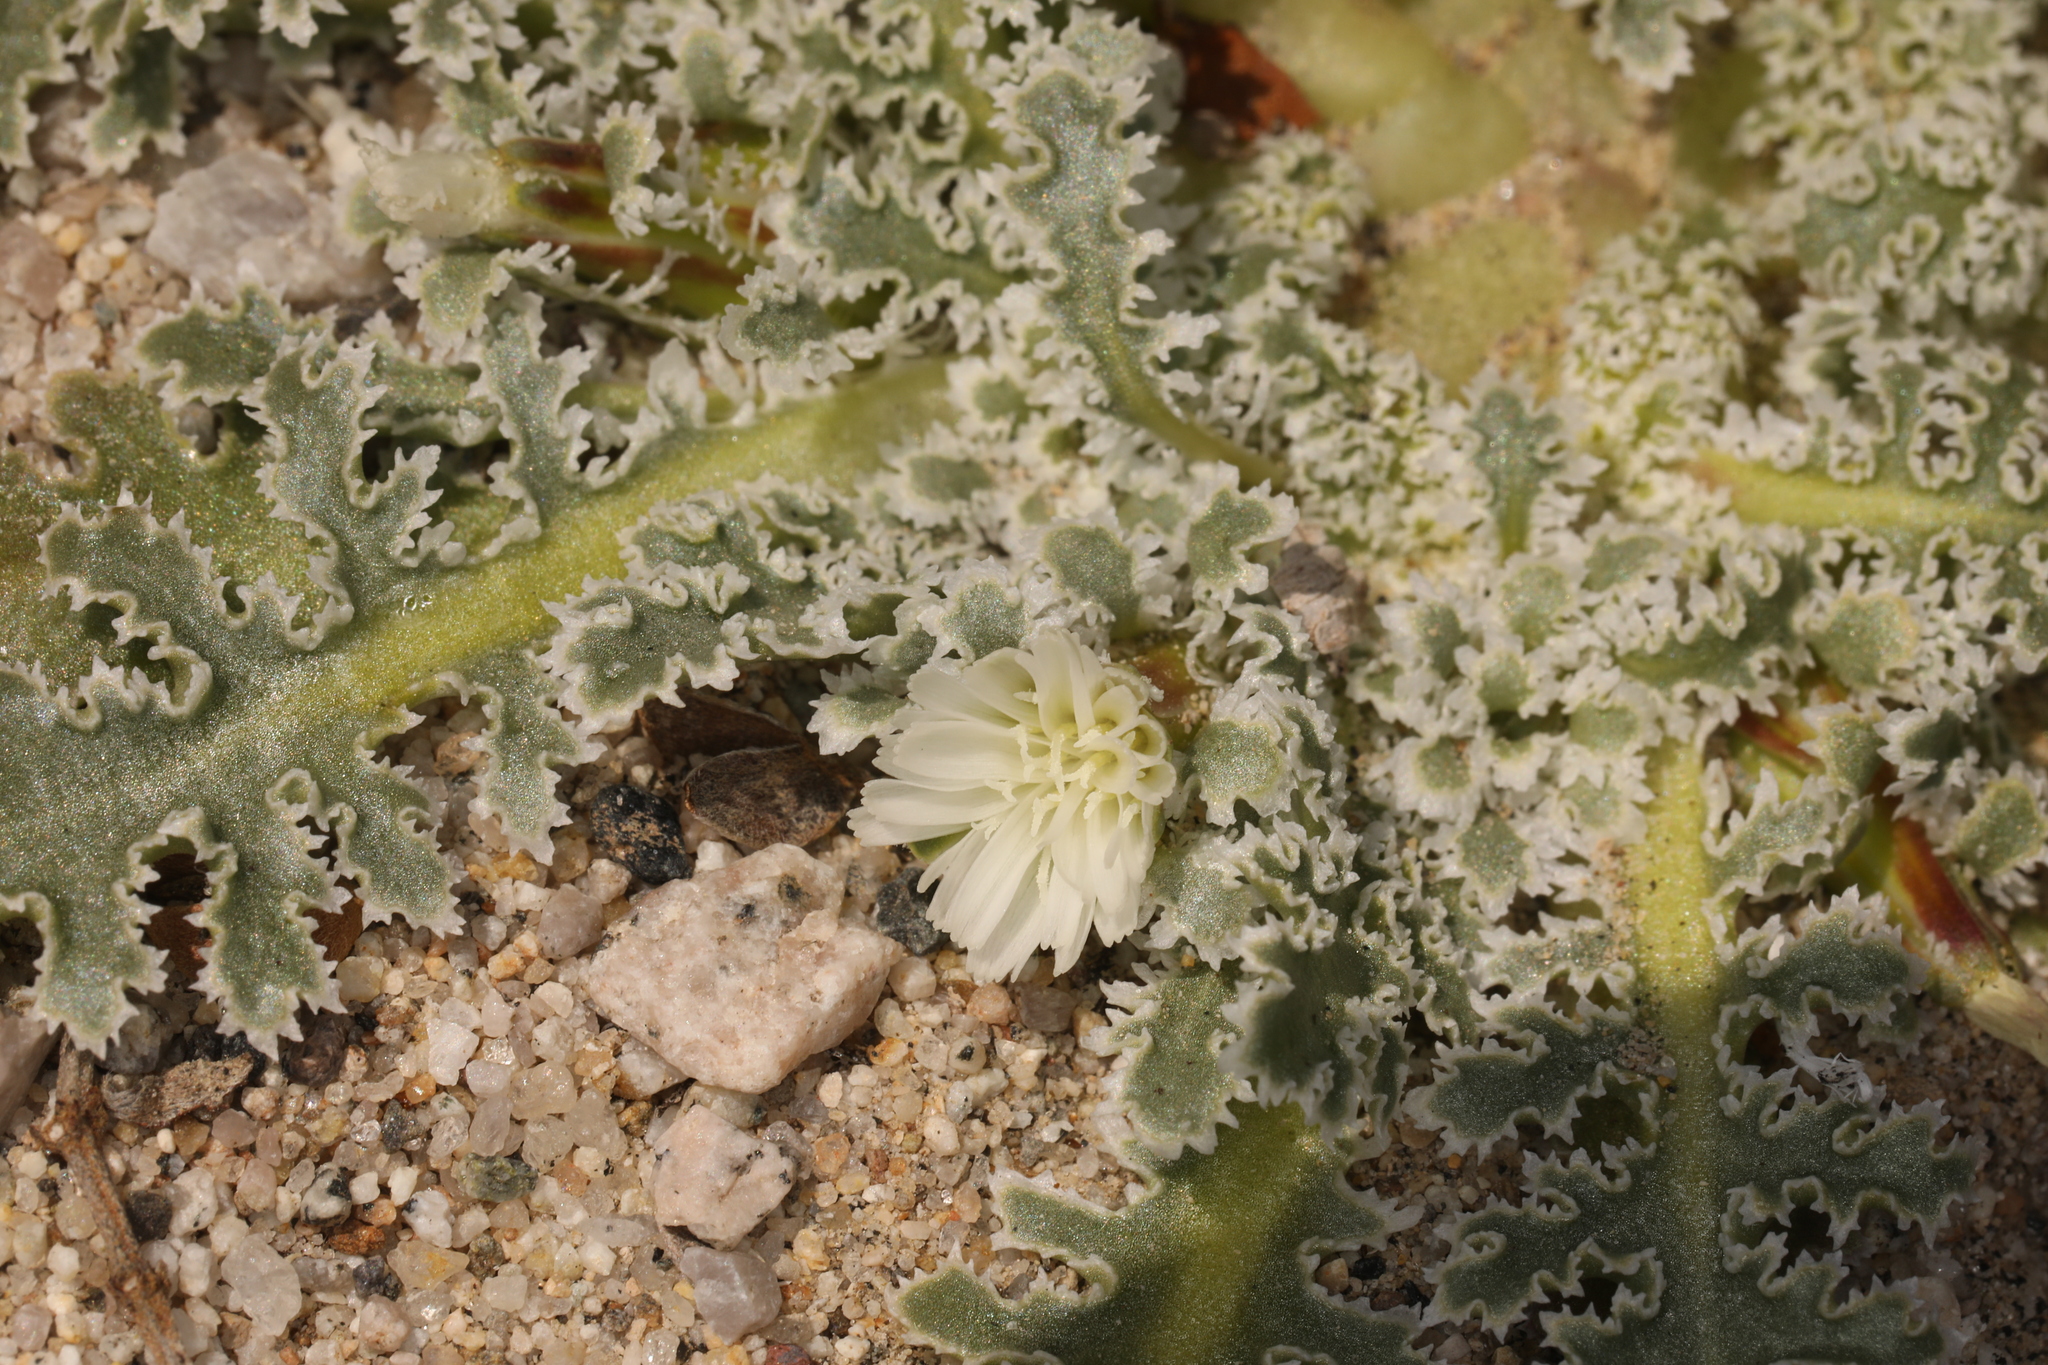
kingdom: Plantae
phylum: Tracheophyta
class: Magnoliopsida
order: Asterales
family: Asteraceae
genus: Glyptopleura
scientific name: Glyptopleura marginata
